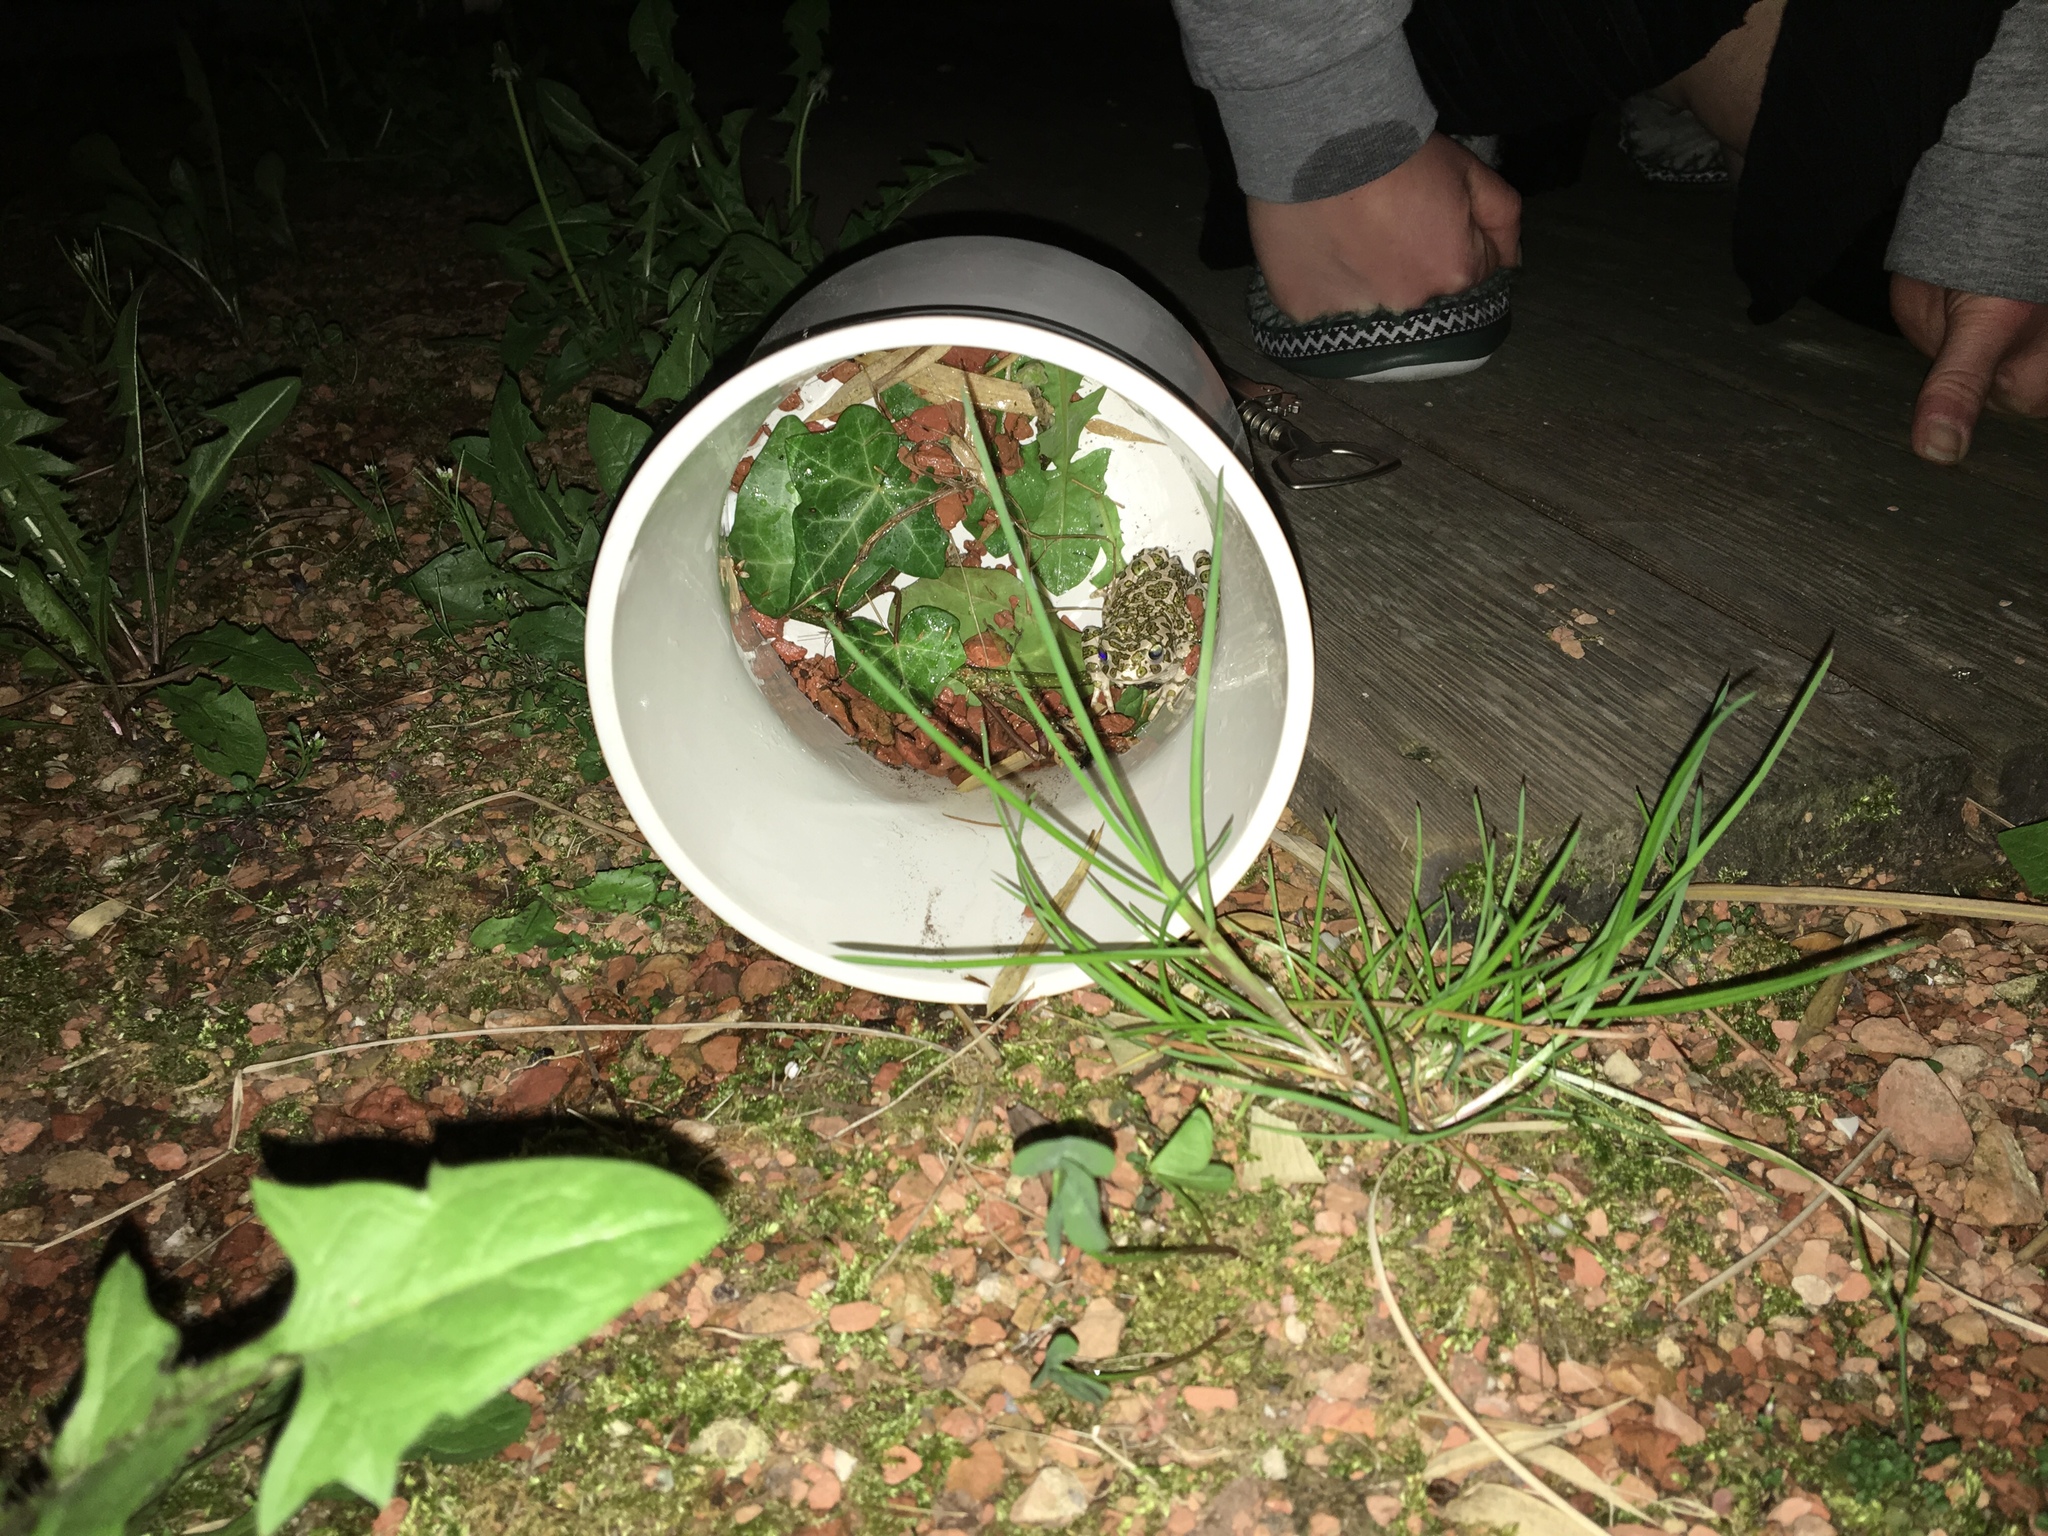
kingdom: Animalia
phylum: Chordata
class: Amphibia
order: Anura
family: Bufonidae
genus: Bufotes
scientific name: Bufotes viridis
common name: European green toad
